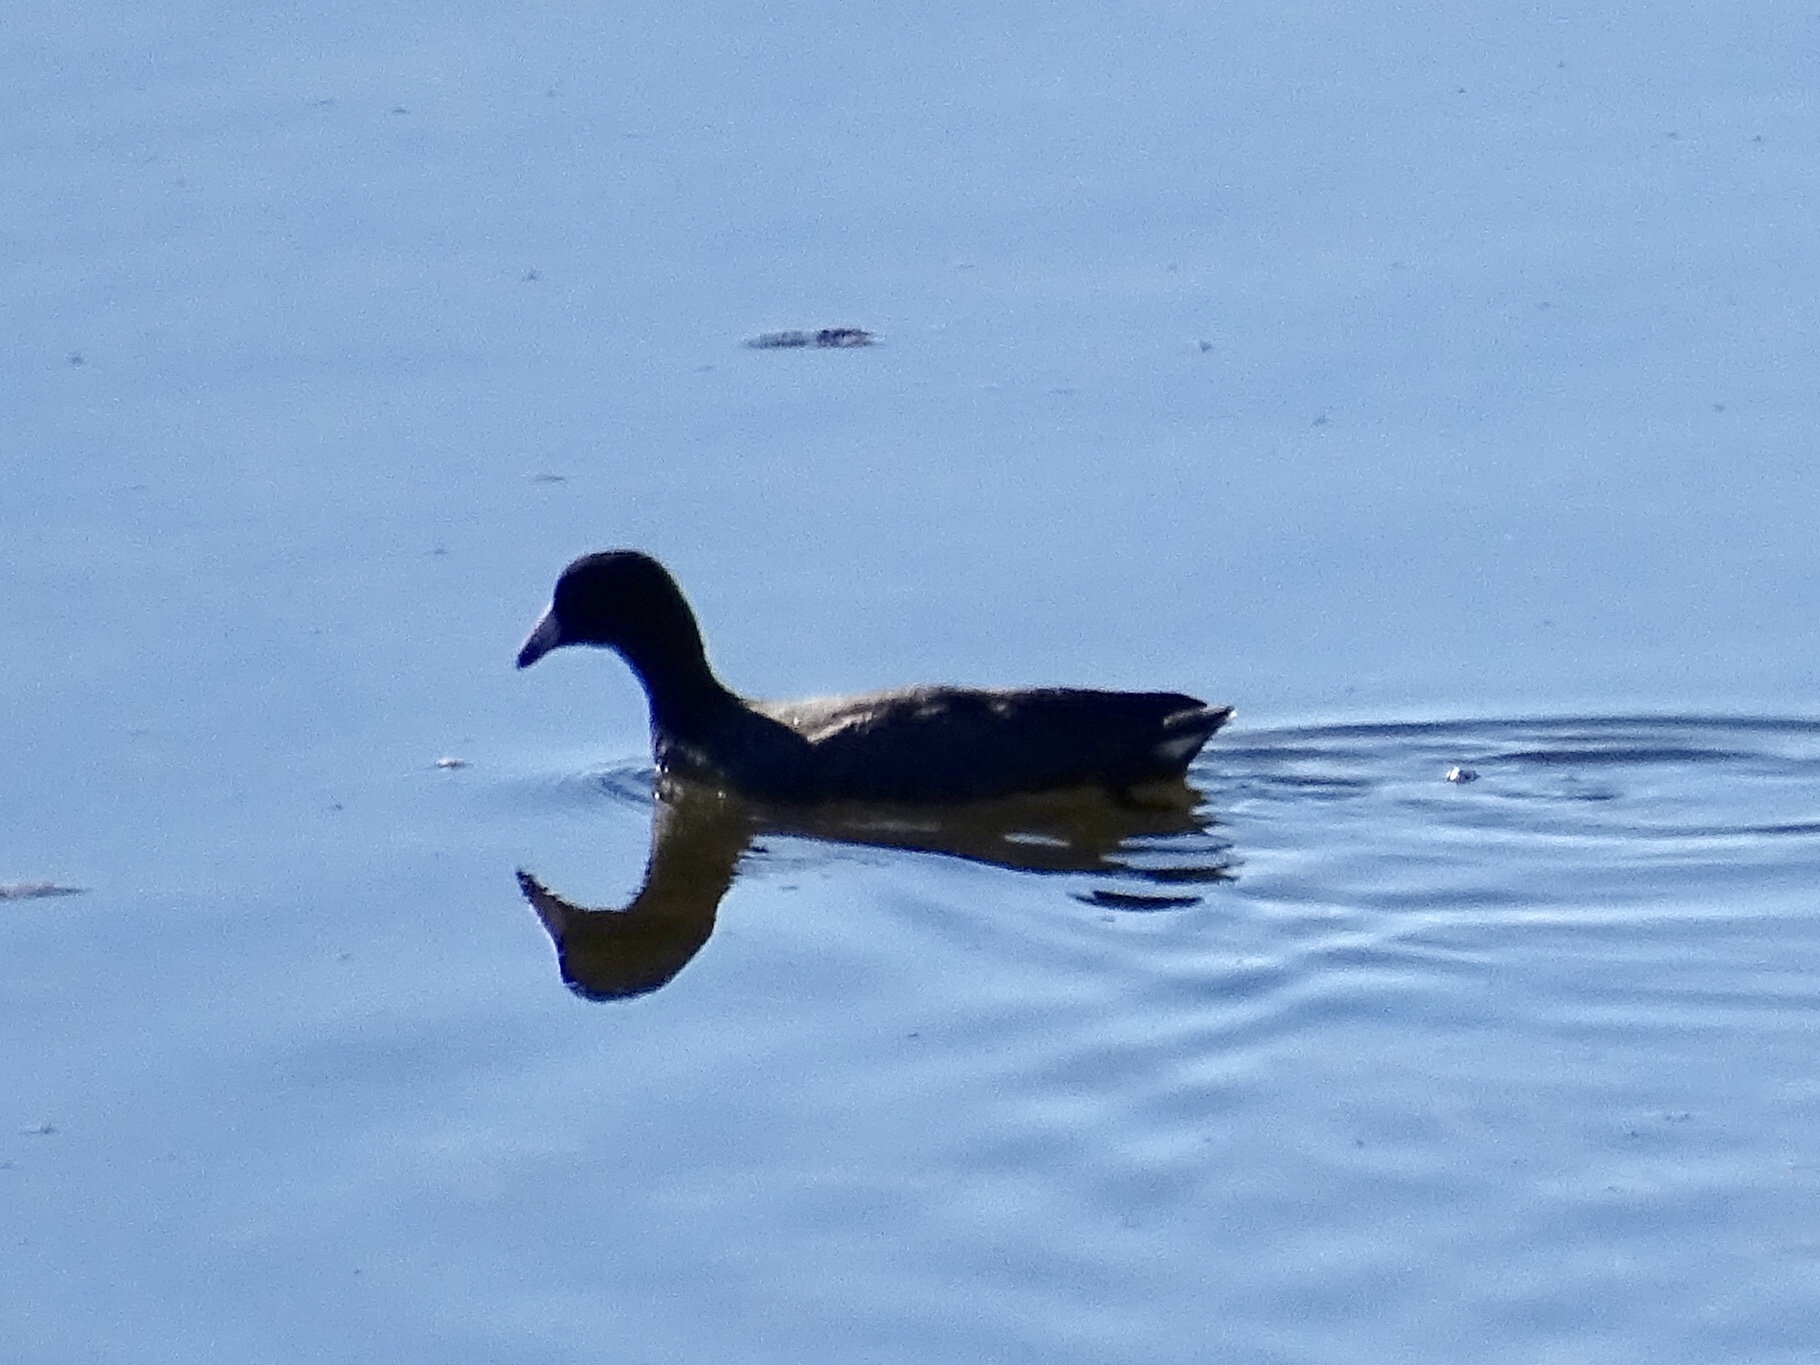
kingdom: Animalia
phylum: Chordata
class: Aves
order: Gruiformes
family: Rallidae
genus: Fulica
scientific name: Fulica americana
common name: American coot
